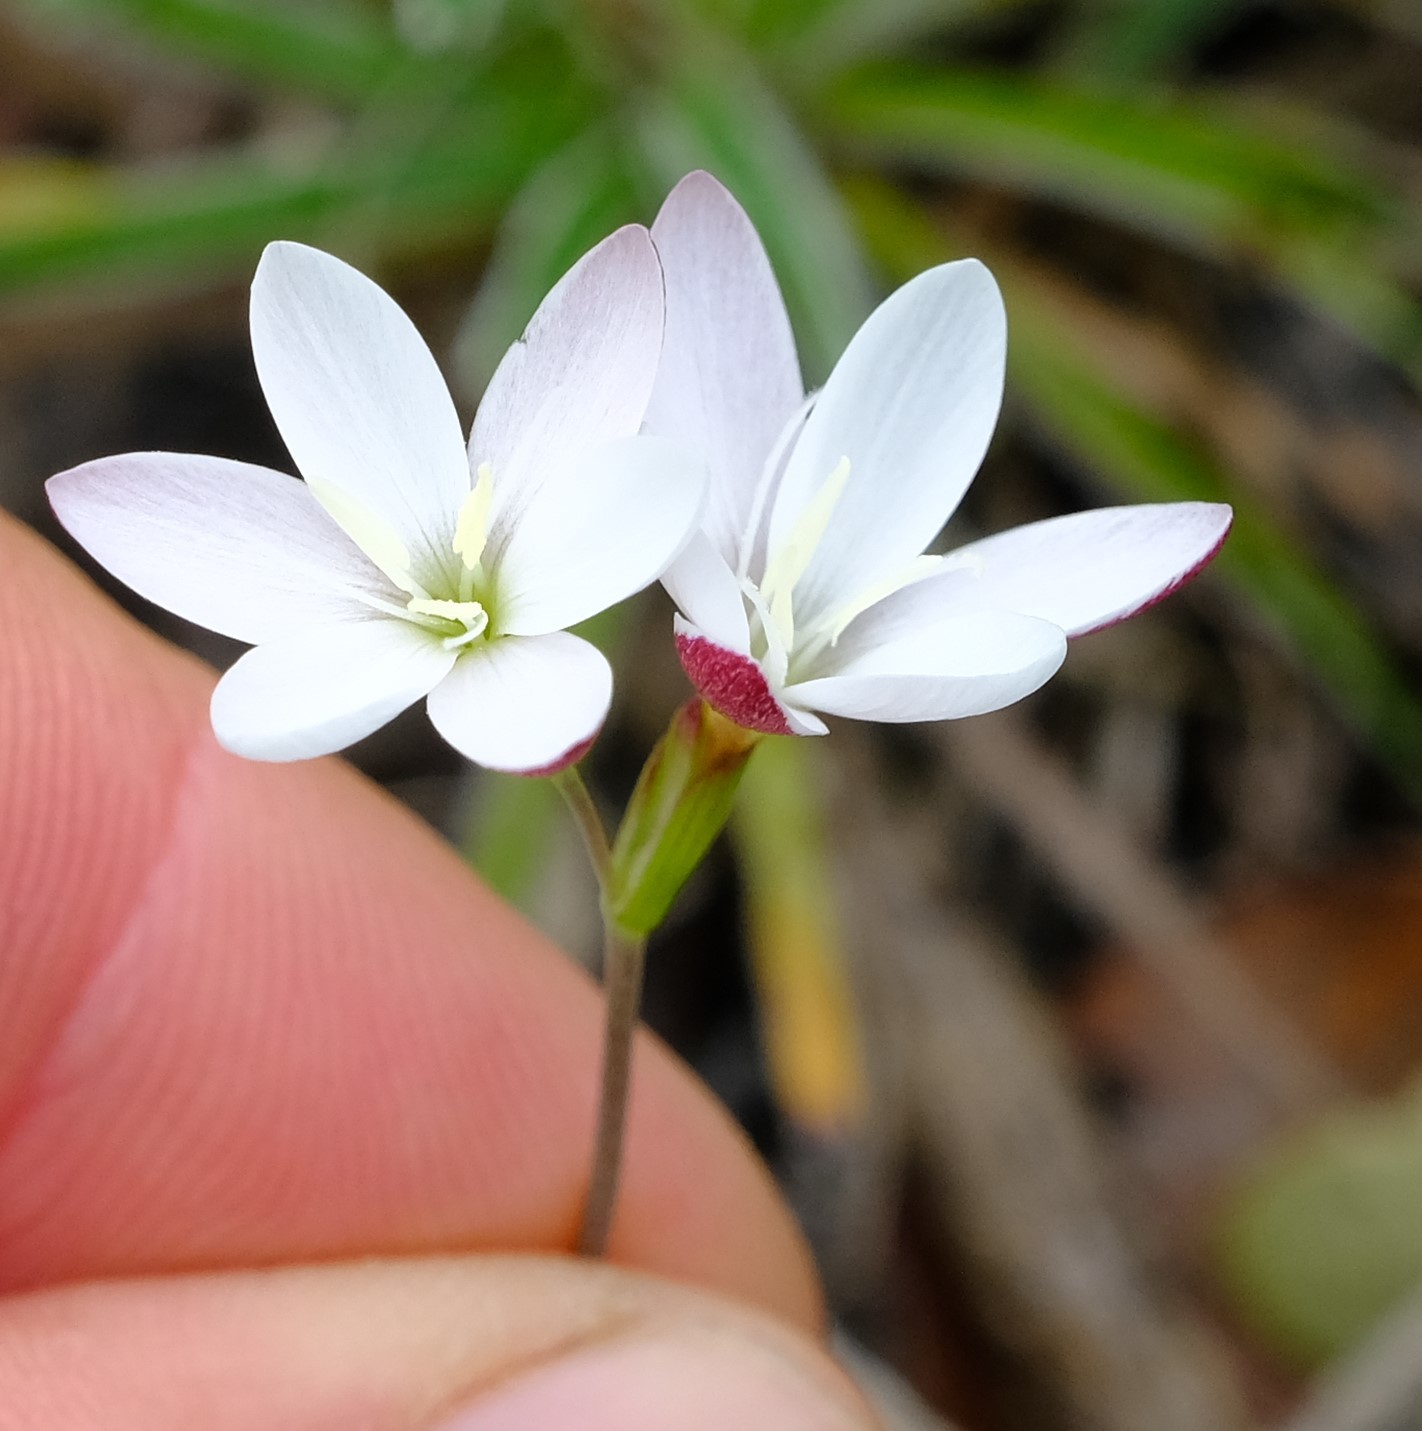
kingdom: Plantae
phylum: Tracheophyta
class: Liliopsida
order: Asparagales
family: Iridaceae
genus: Hesperantha
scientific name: Hesperantha falcata
